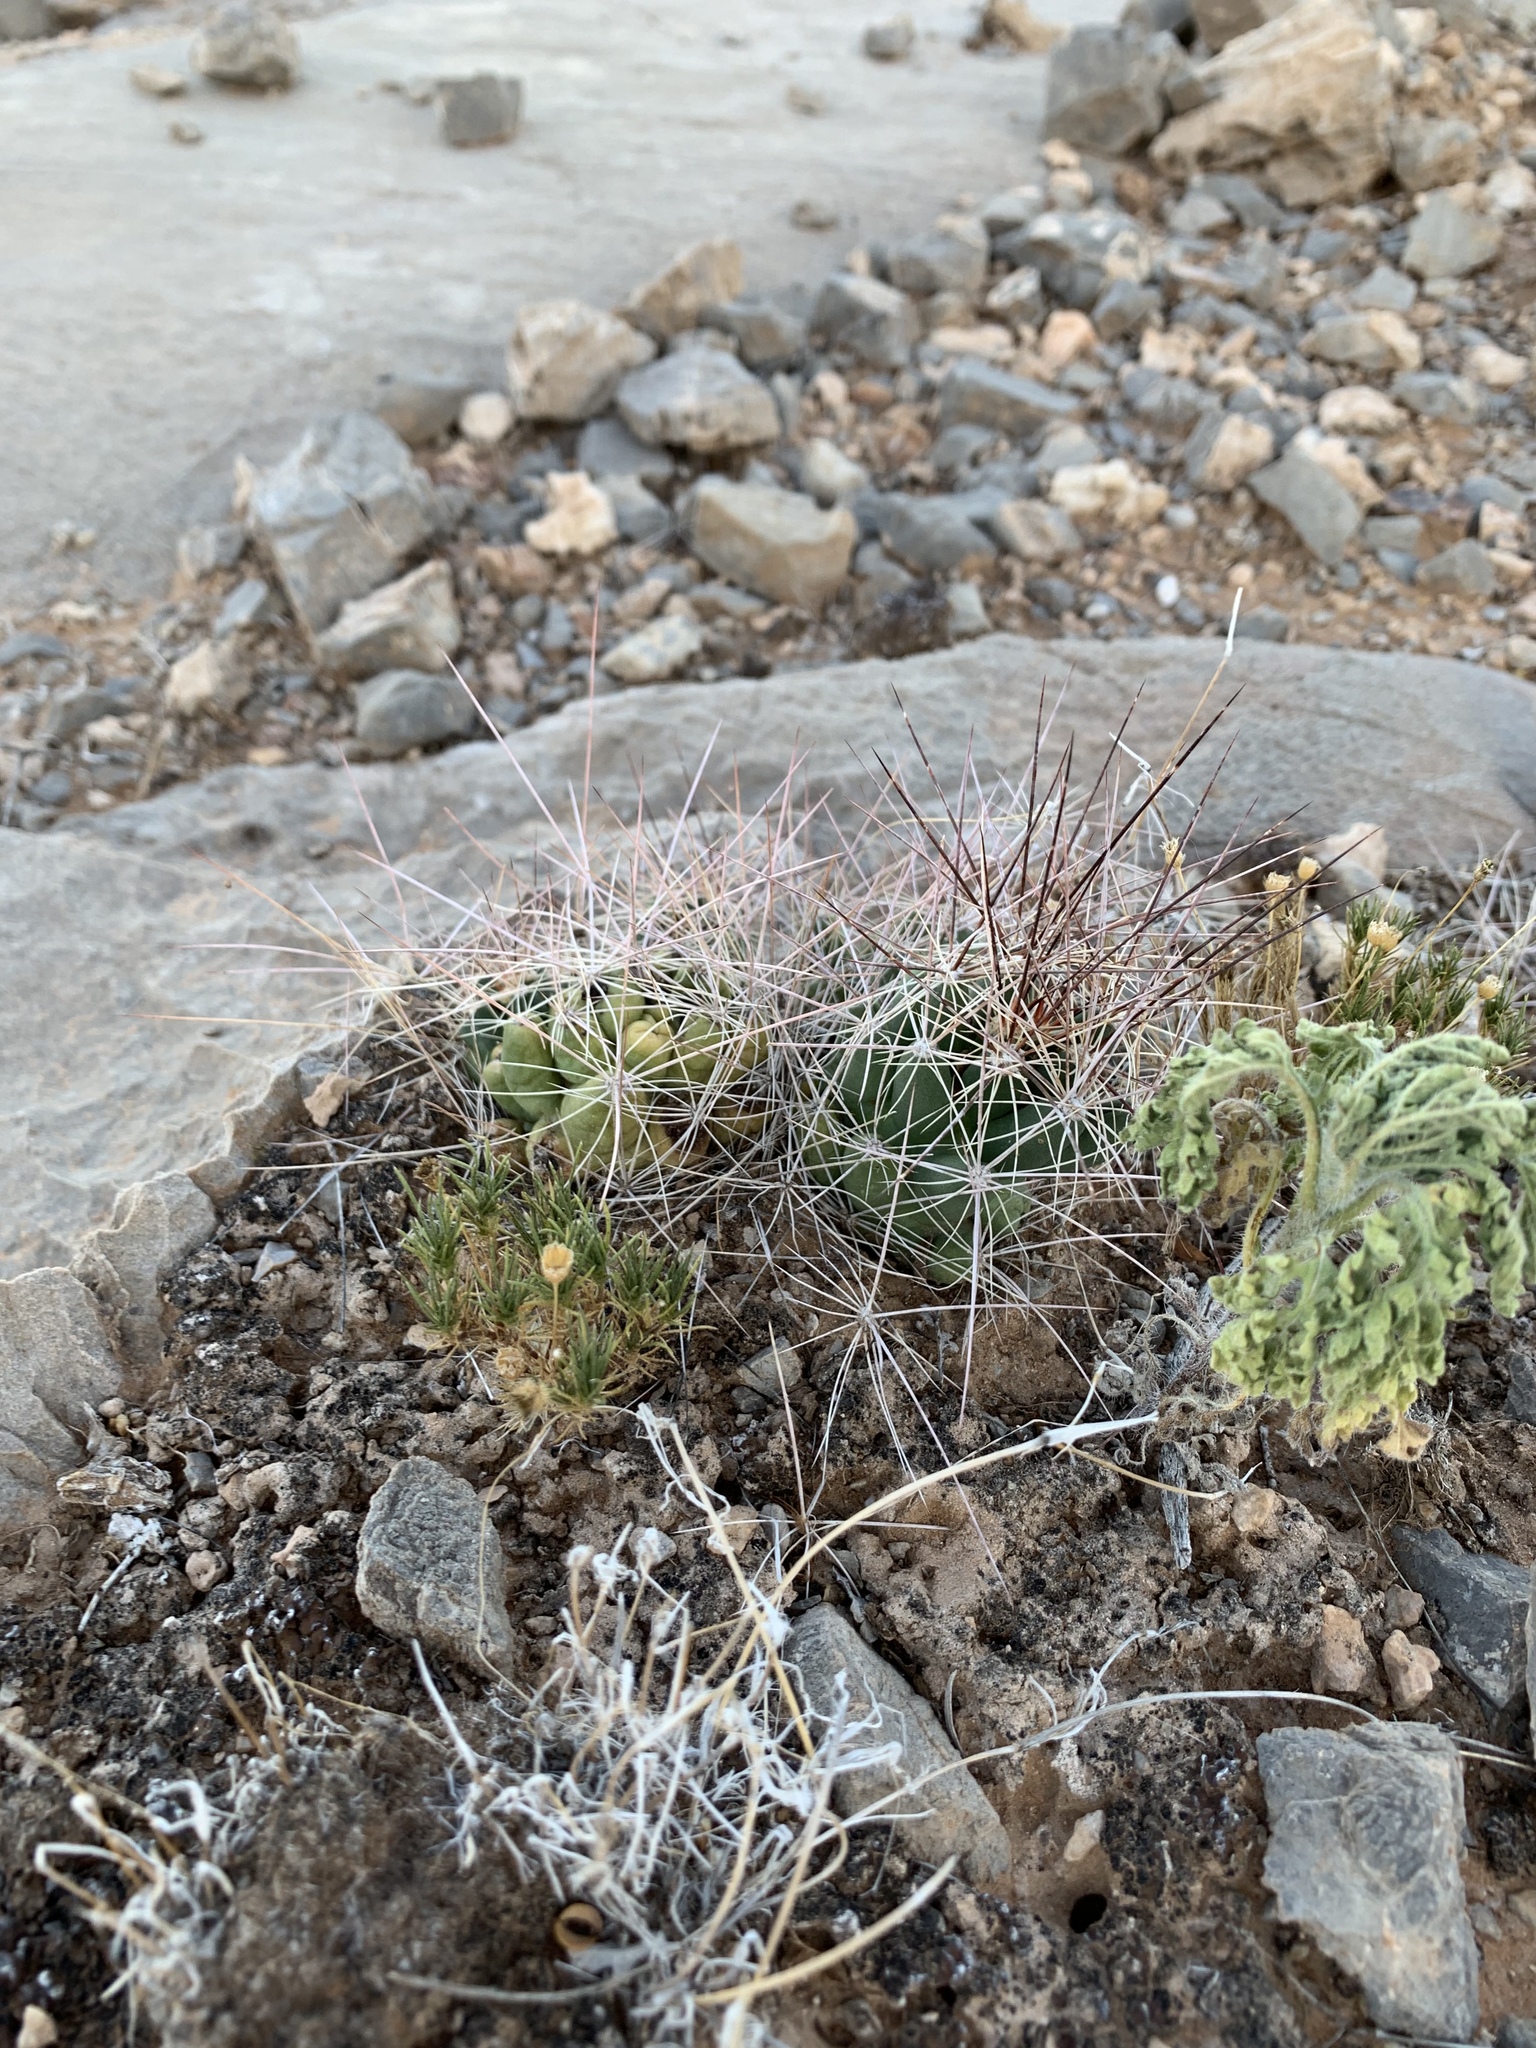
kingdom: Plantae
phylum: Tracheophyta
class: Magnoliopsida
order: Caryophyllales
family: Cactaceae
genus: Coryphantha
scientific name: Coryphantha macromeris
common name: Nipple beehive cactus
